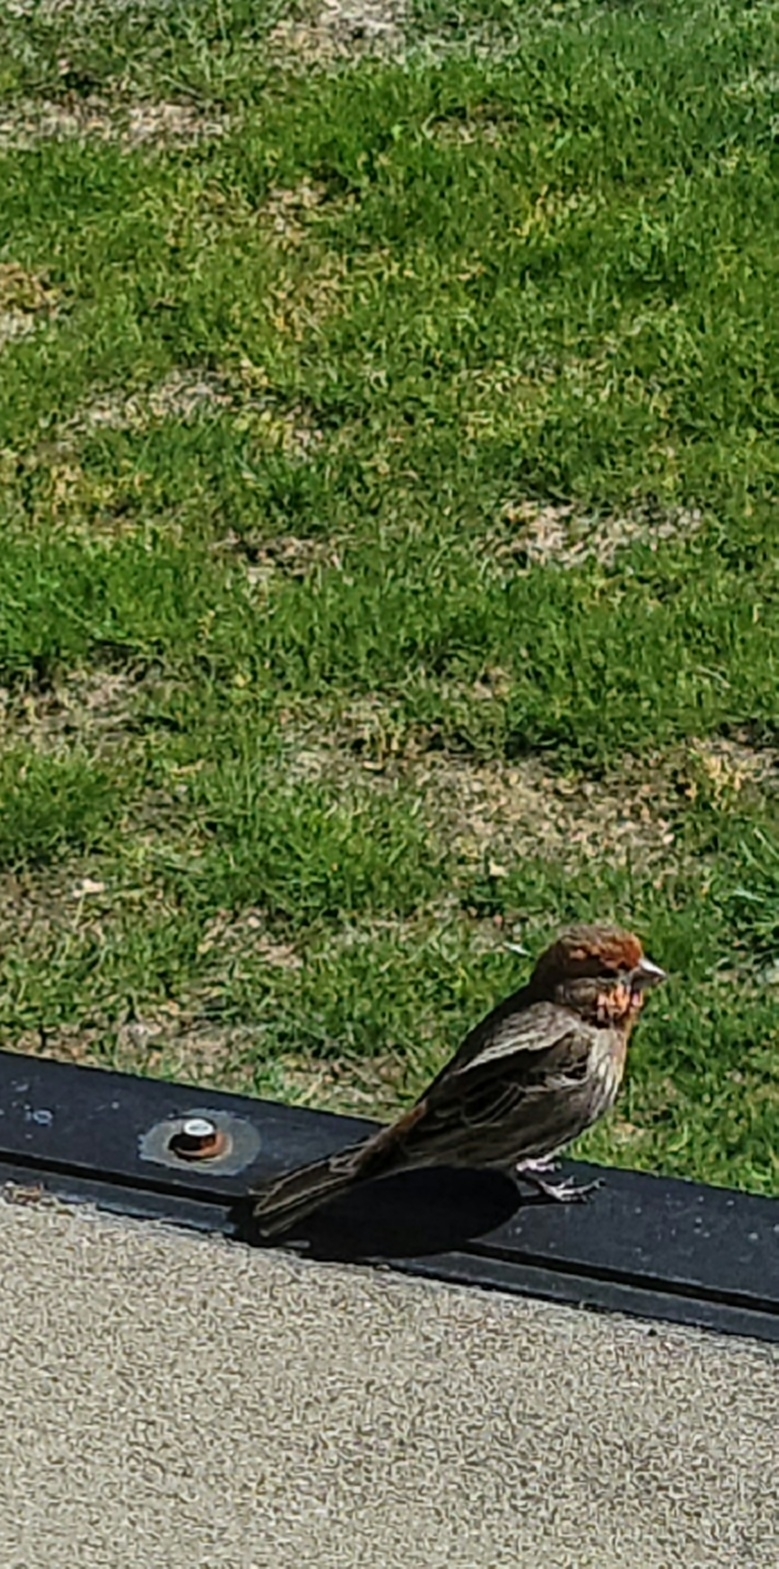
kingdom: Animalia
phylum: Chordata
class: Aves
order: Passeriformes
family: Fringillidae
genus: Haemorhous
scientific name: Haemorhous mexicanus
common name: House finch
